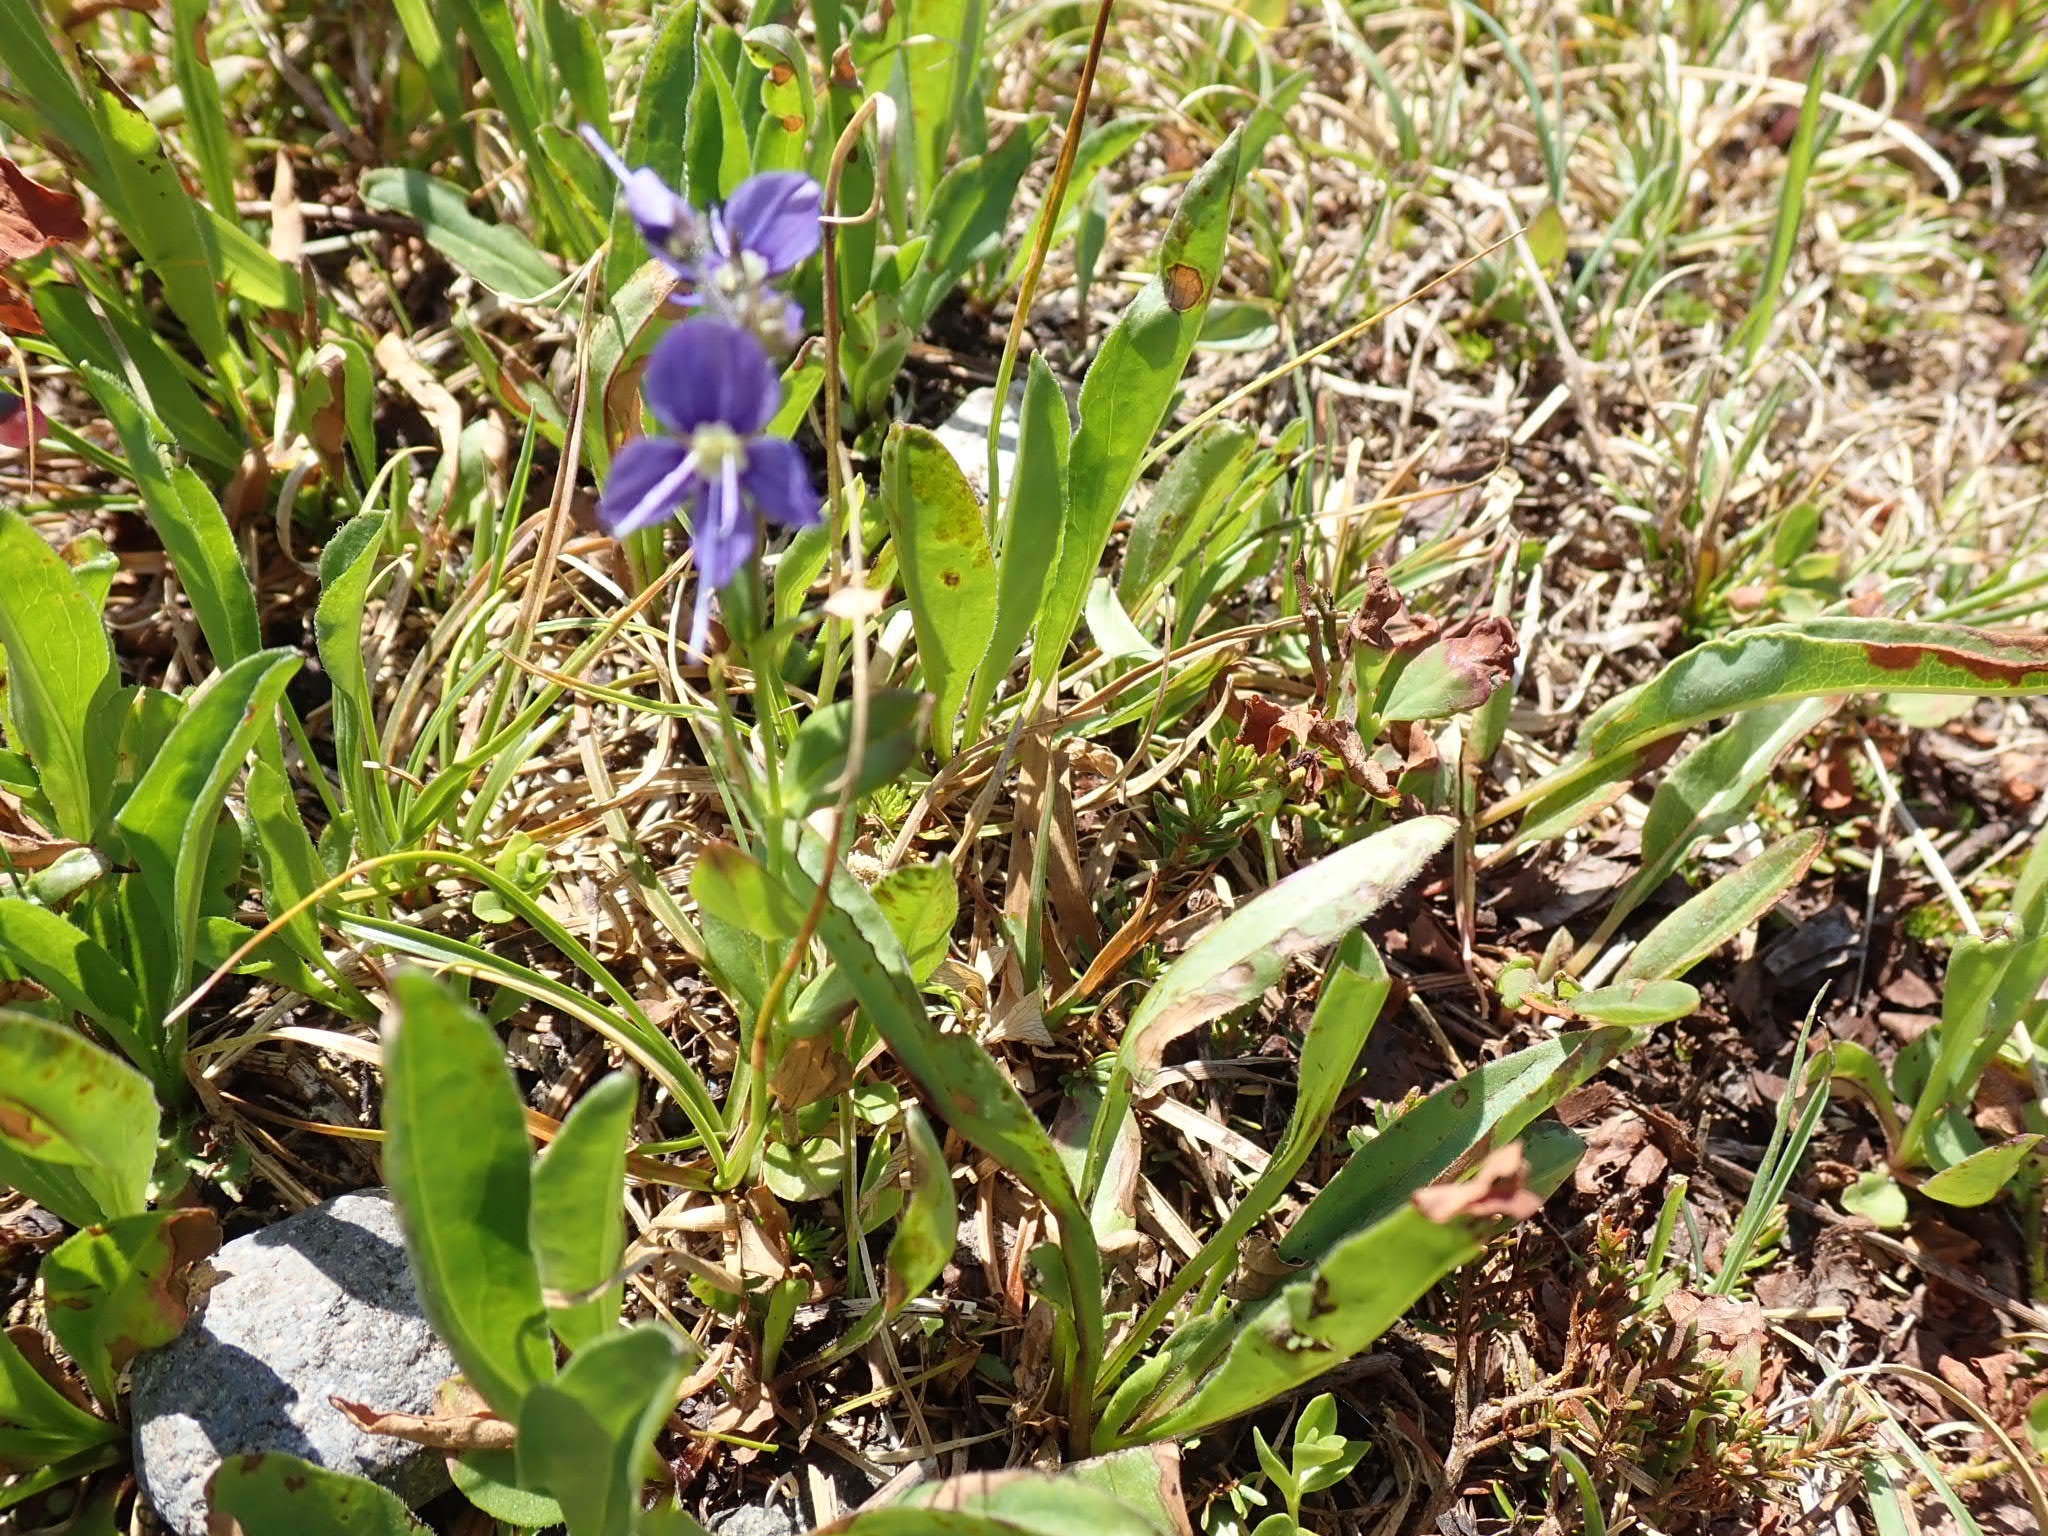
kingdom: Plantae
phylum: Tracheophyta
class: Magnoliopsida
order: Lamiales
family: Plantaginaceae
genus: Veronica
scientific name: Veronica cusickii
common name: Cusick's speedwell
